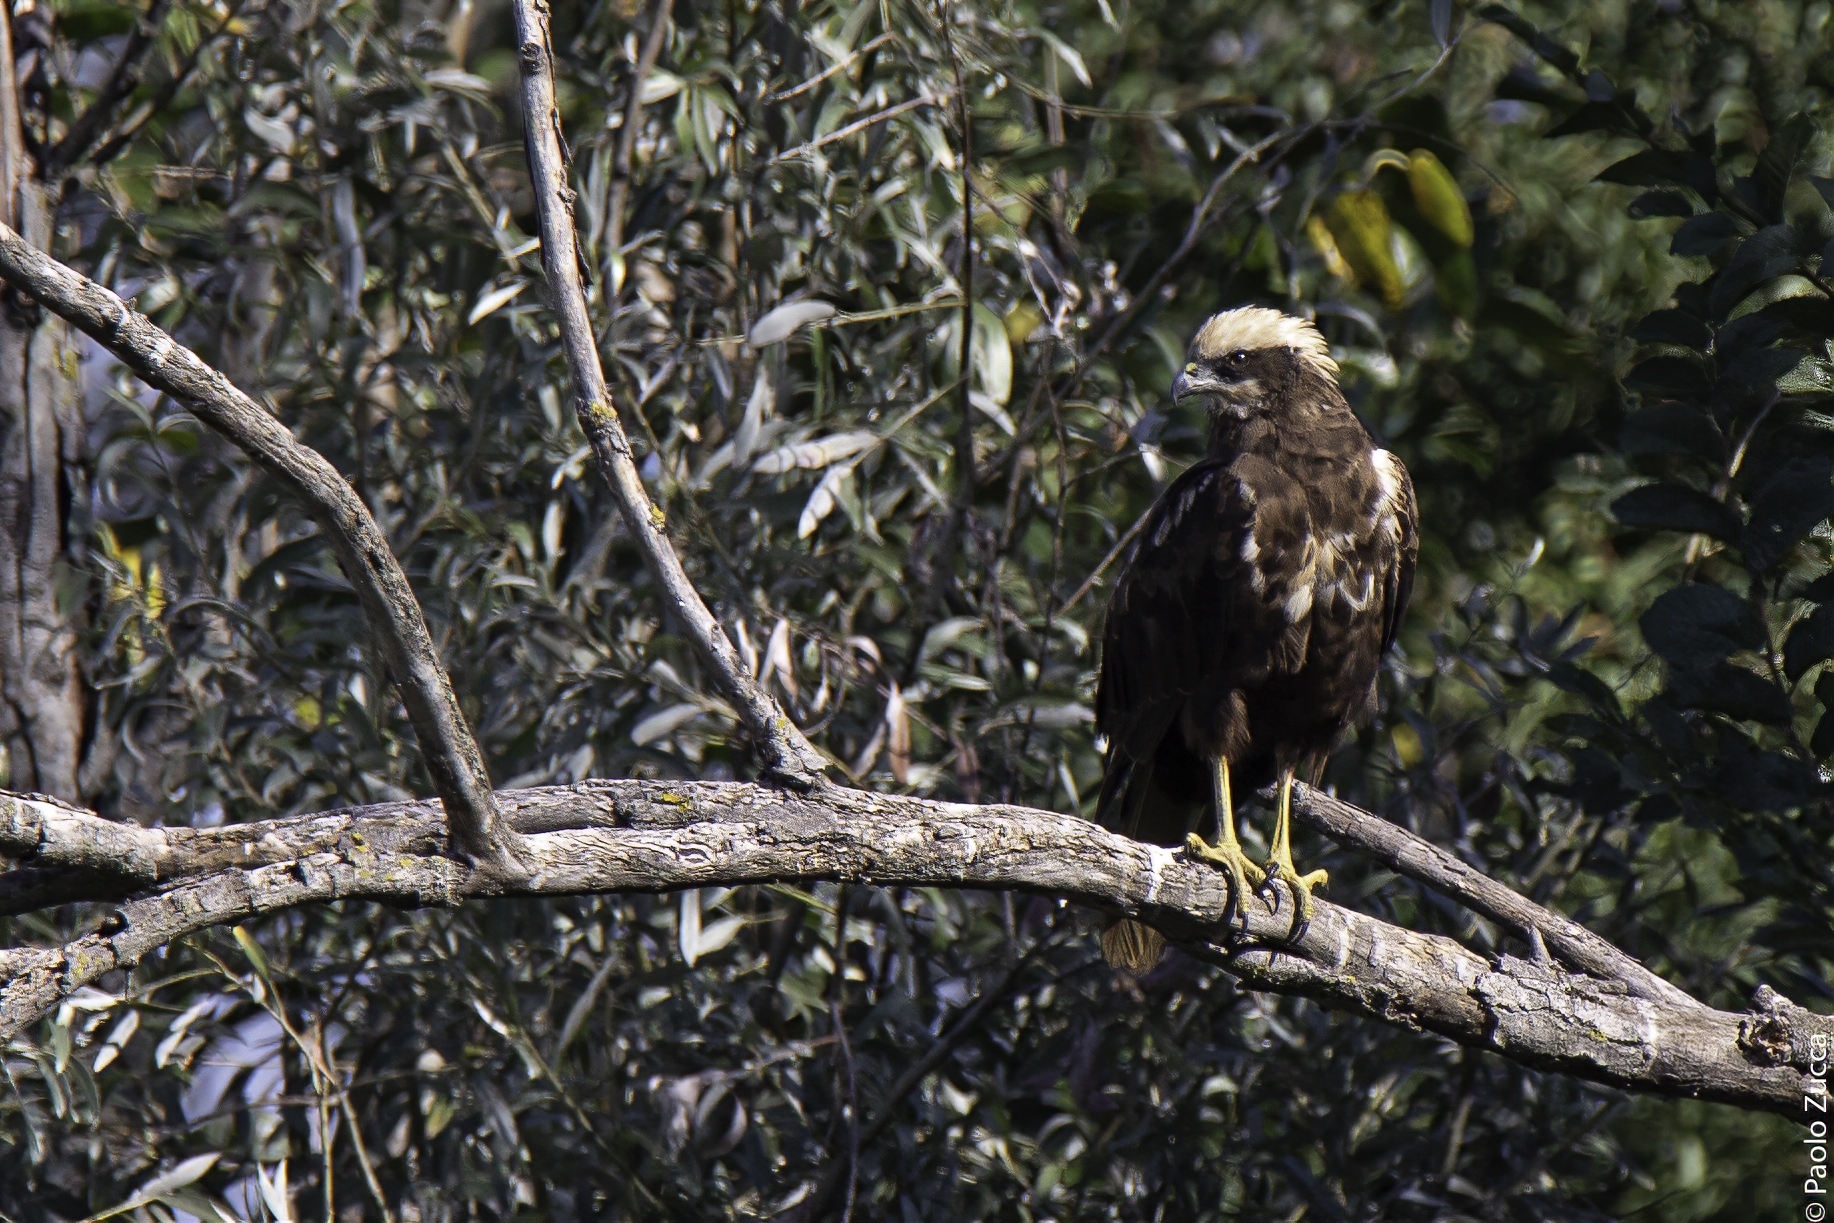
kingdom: Animalia
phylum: Chordata
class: Aves
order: Accipitriformes
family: Accipitridae
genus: Circus
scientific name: Circus aeruginosus
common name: Western marsh harrier
